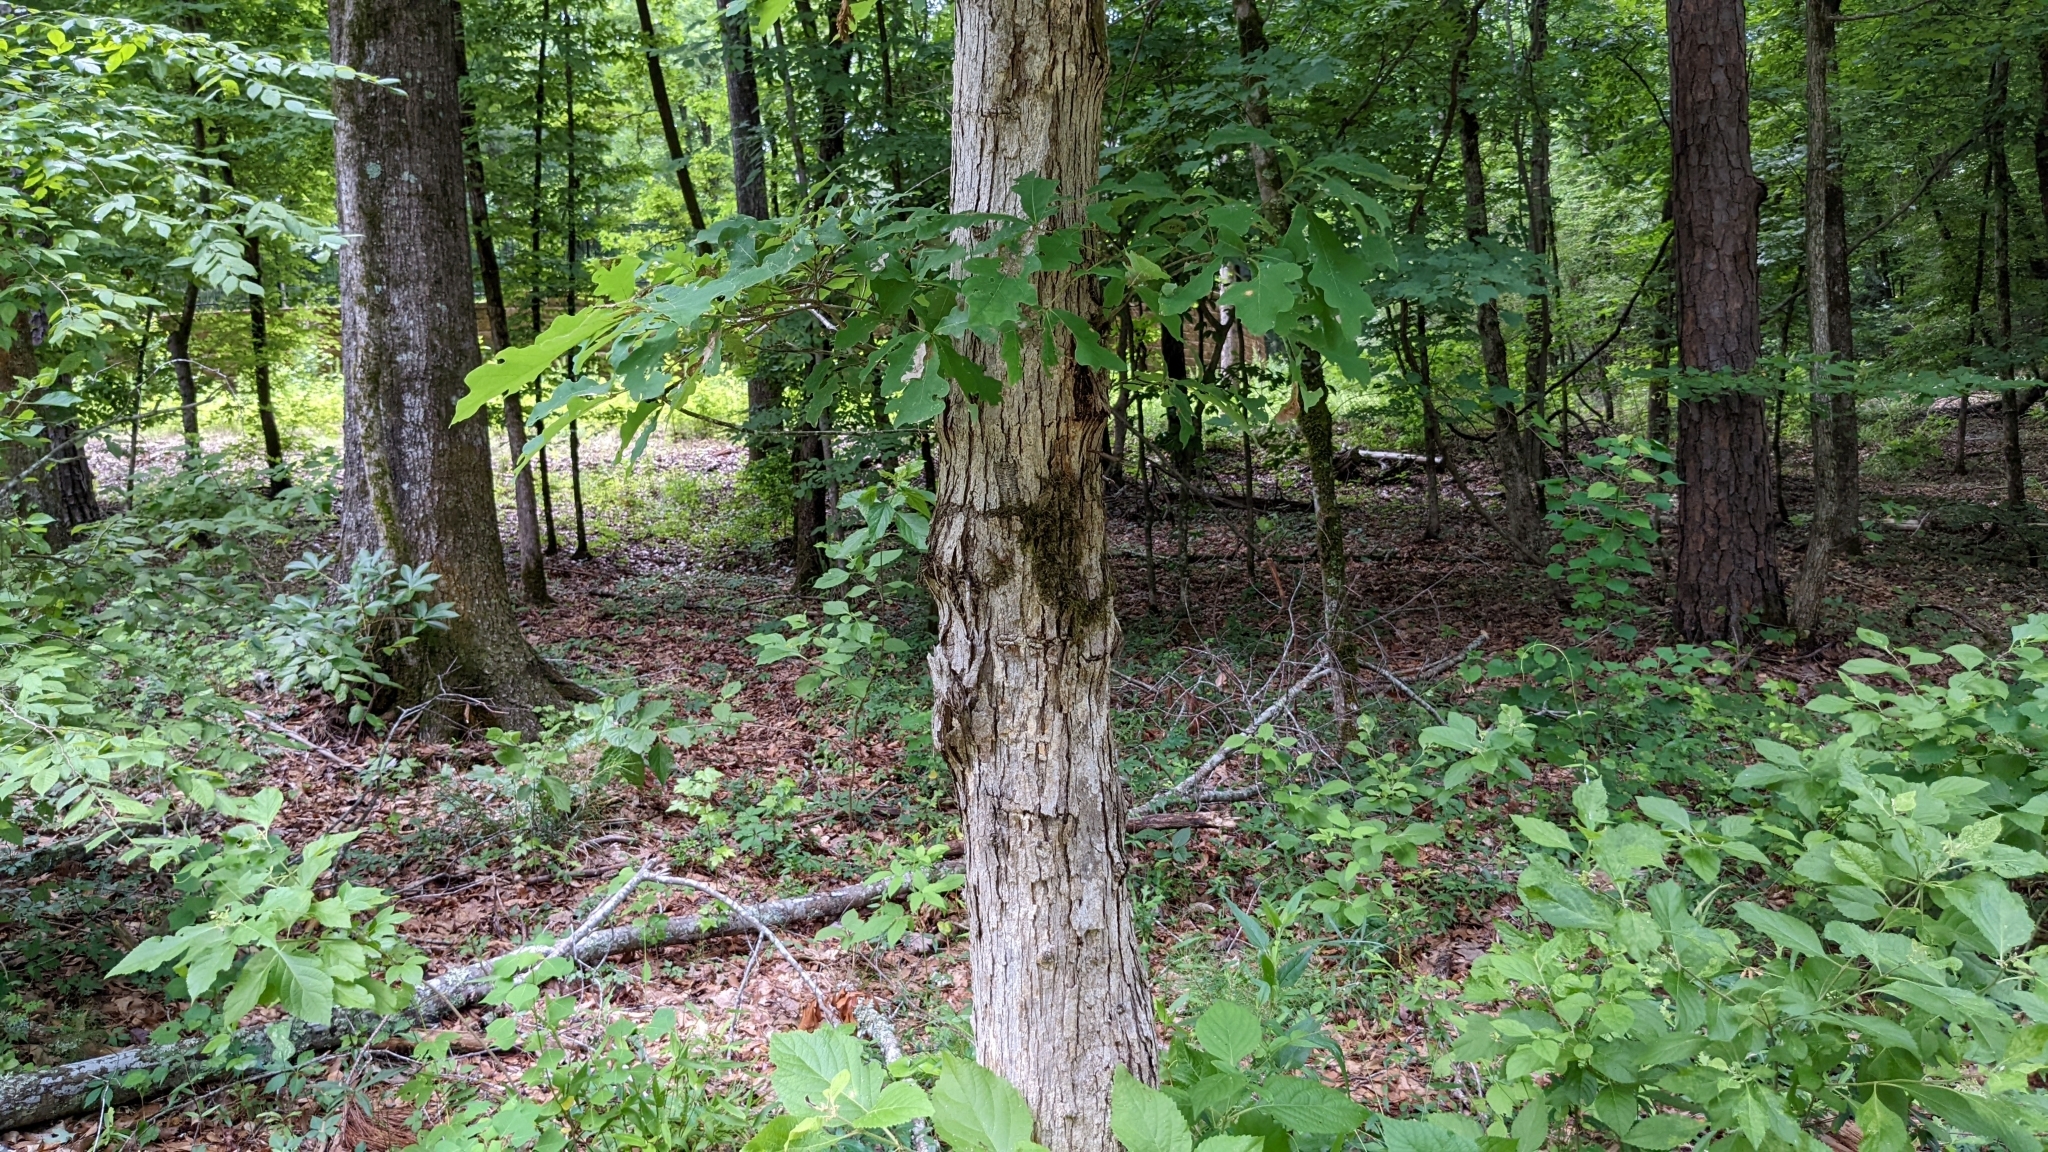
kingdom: Plantae
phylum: Tracheophyta
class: Magnoliopsida
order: Fagales
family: Fagaceae
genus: Quercus
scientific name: Quercus alba
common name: White oak
